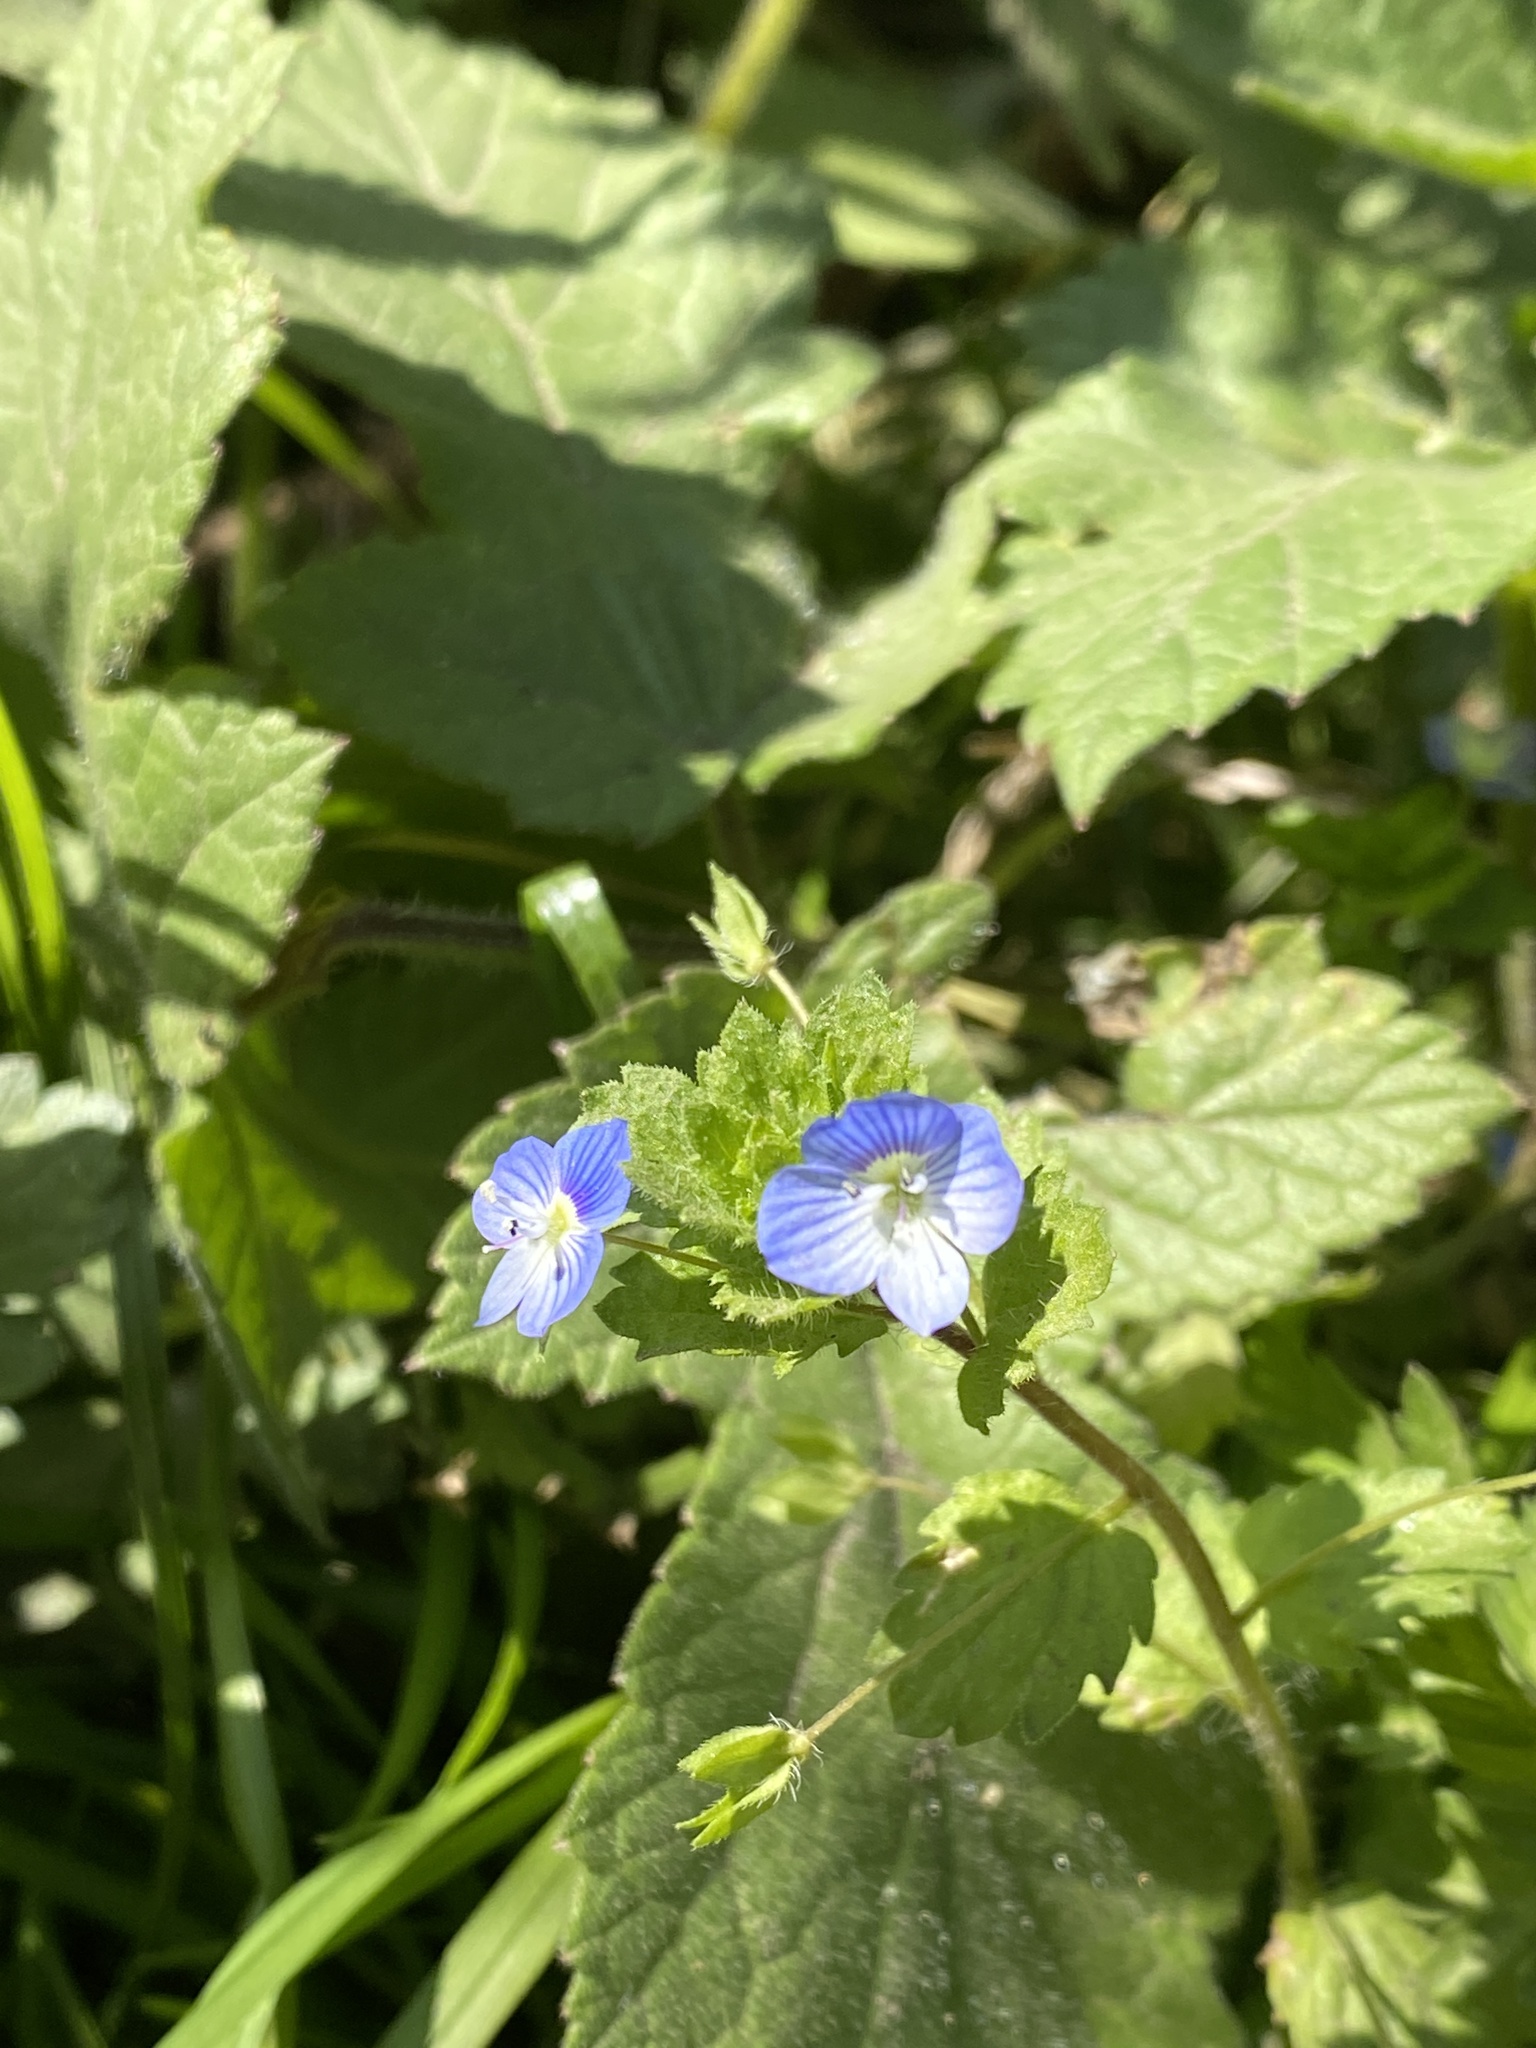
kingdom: Plantae
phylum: Tracheophyta
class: Magnoliopsida
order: Lamiales
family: Plantaginaceae
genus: Veronica
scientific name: Veronica persica
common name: Common field-speedwell
